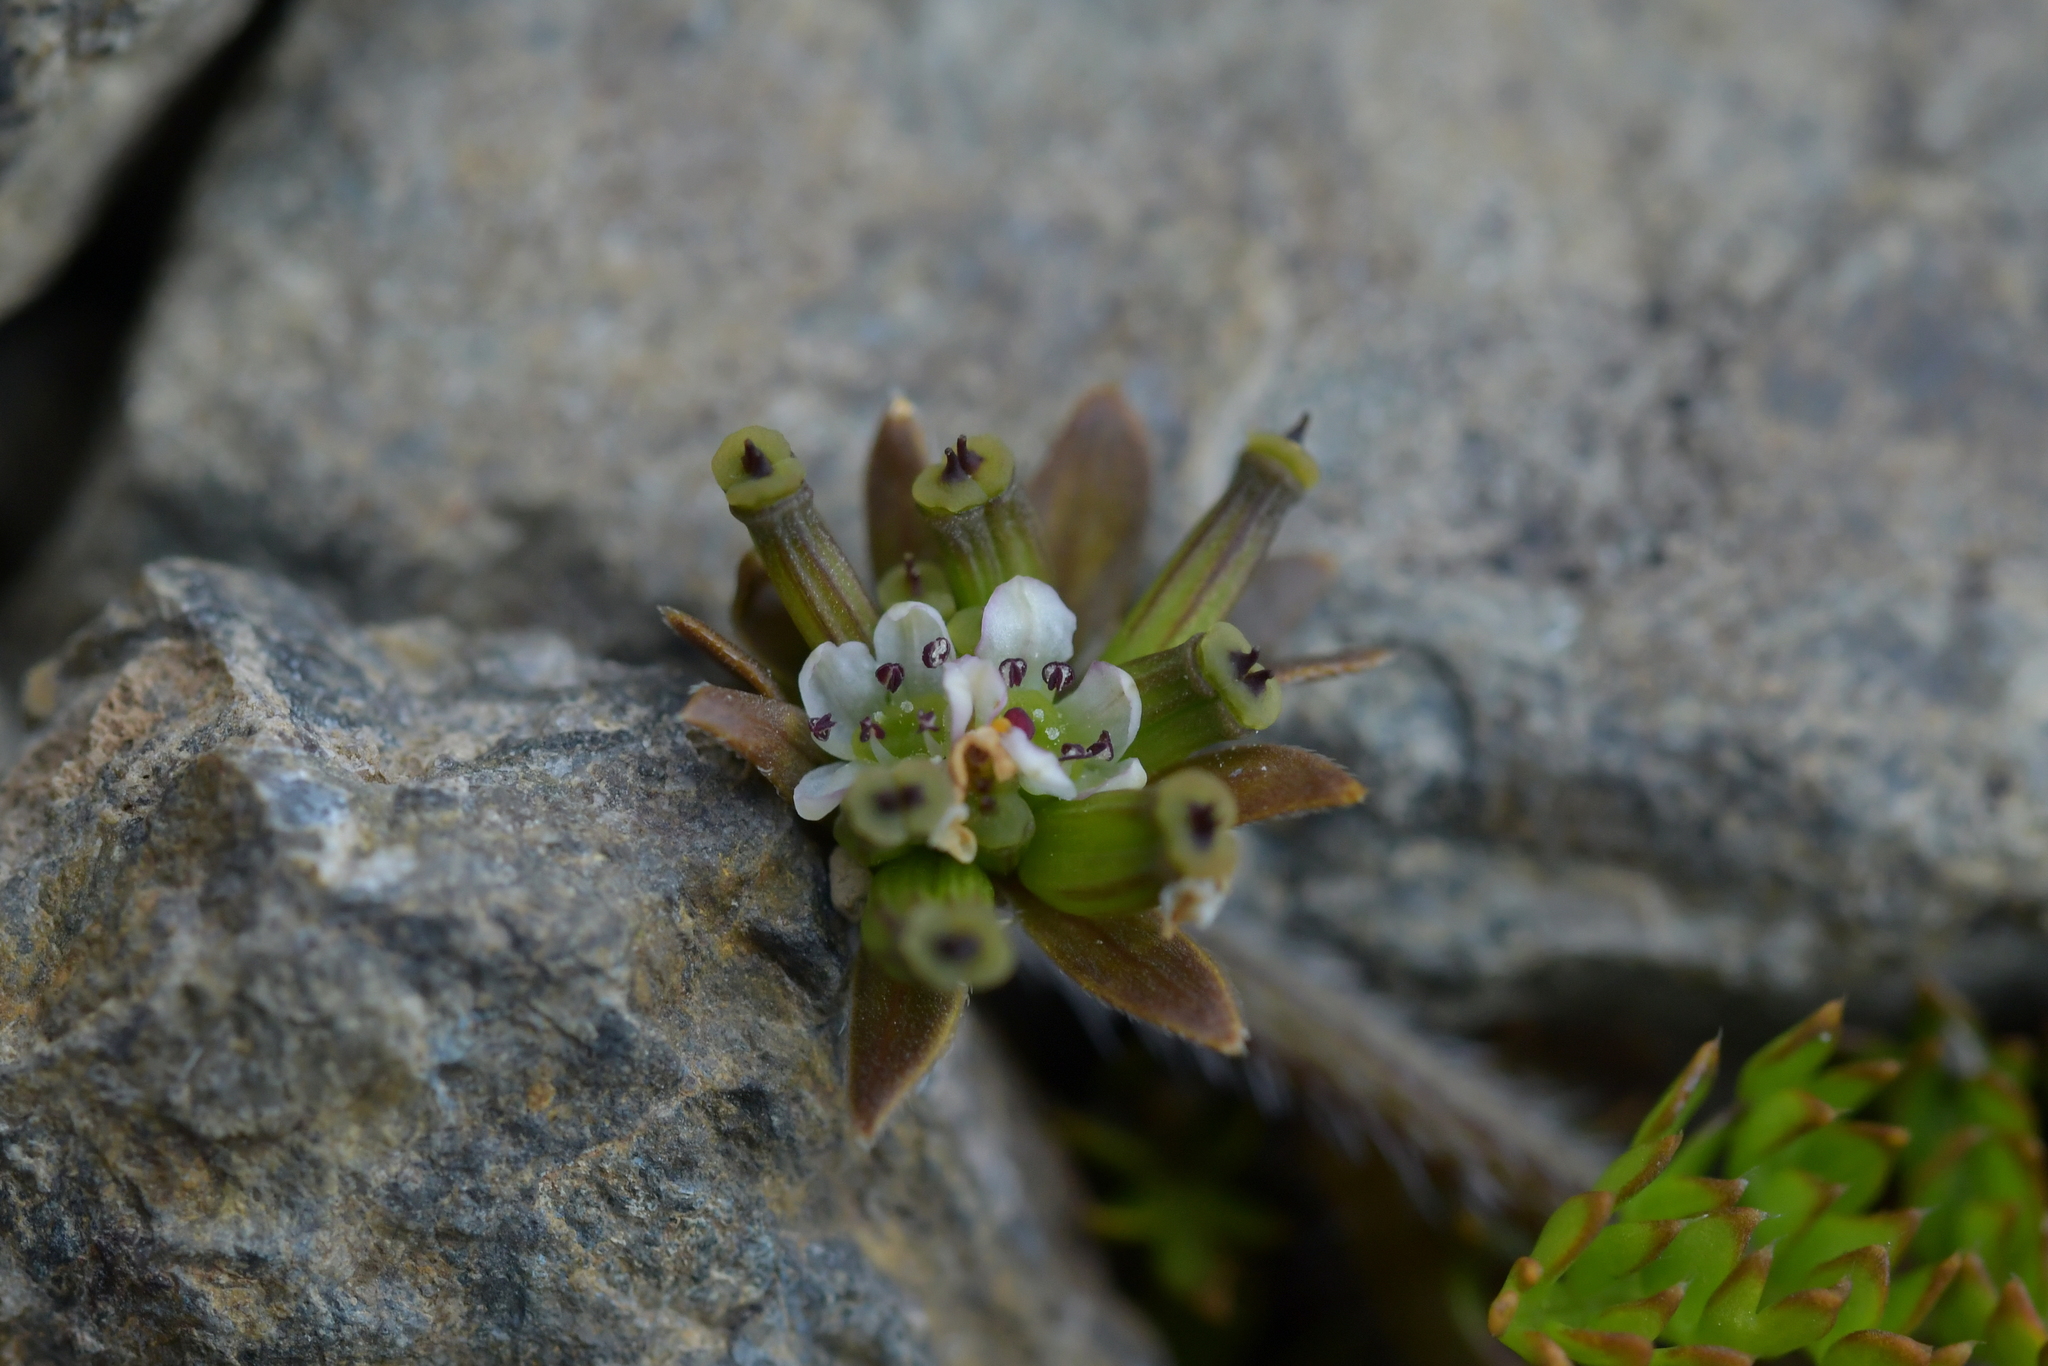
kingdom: Plantae
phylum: Tracheophyta
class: Magnoliopsida
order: Apiales
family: Apiaceae
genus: Chaerophyllum
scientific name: Chaerophyllum colensoi
